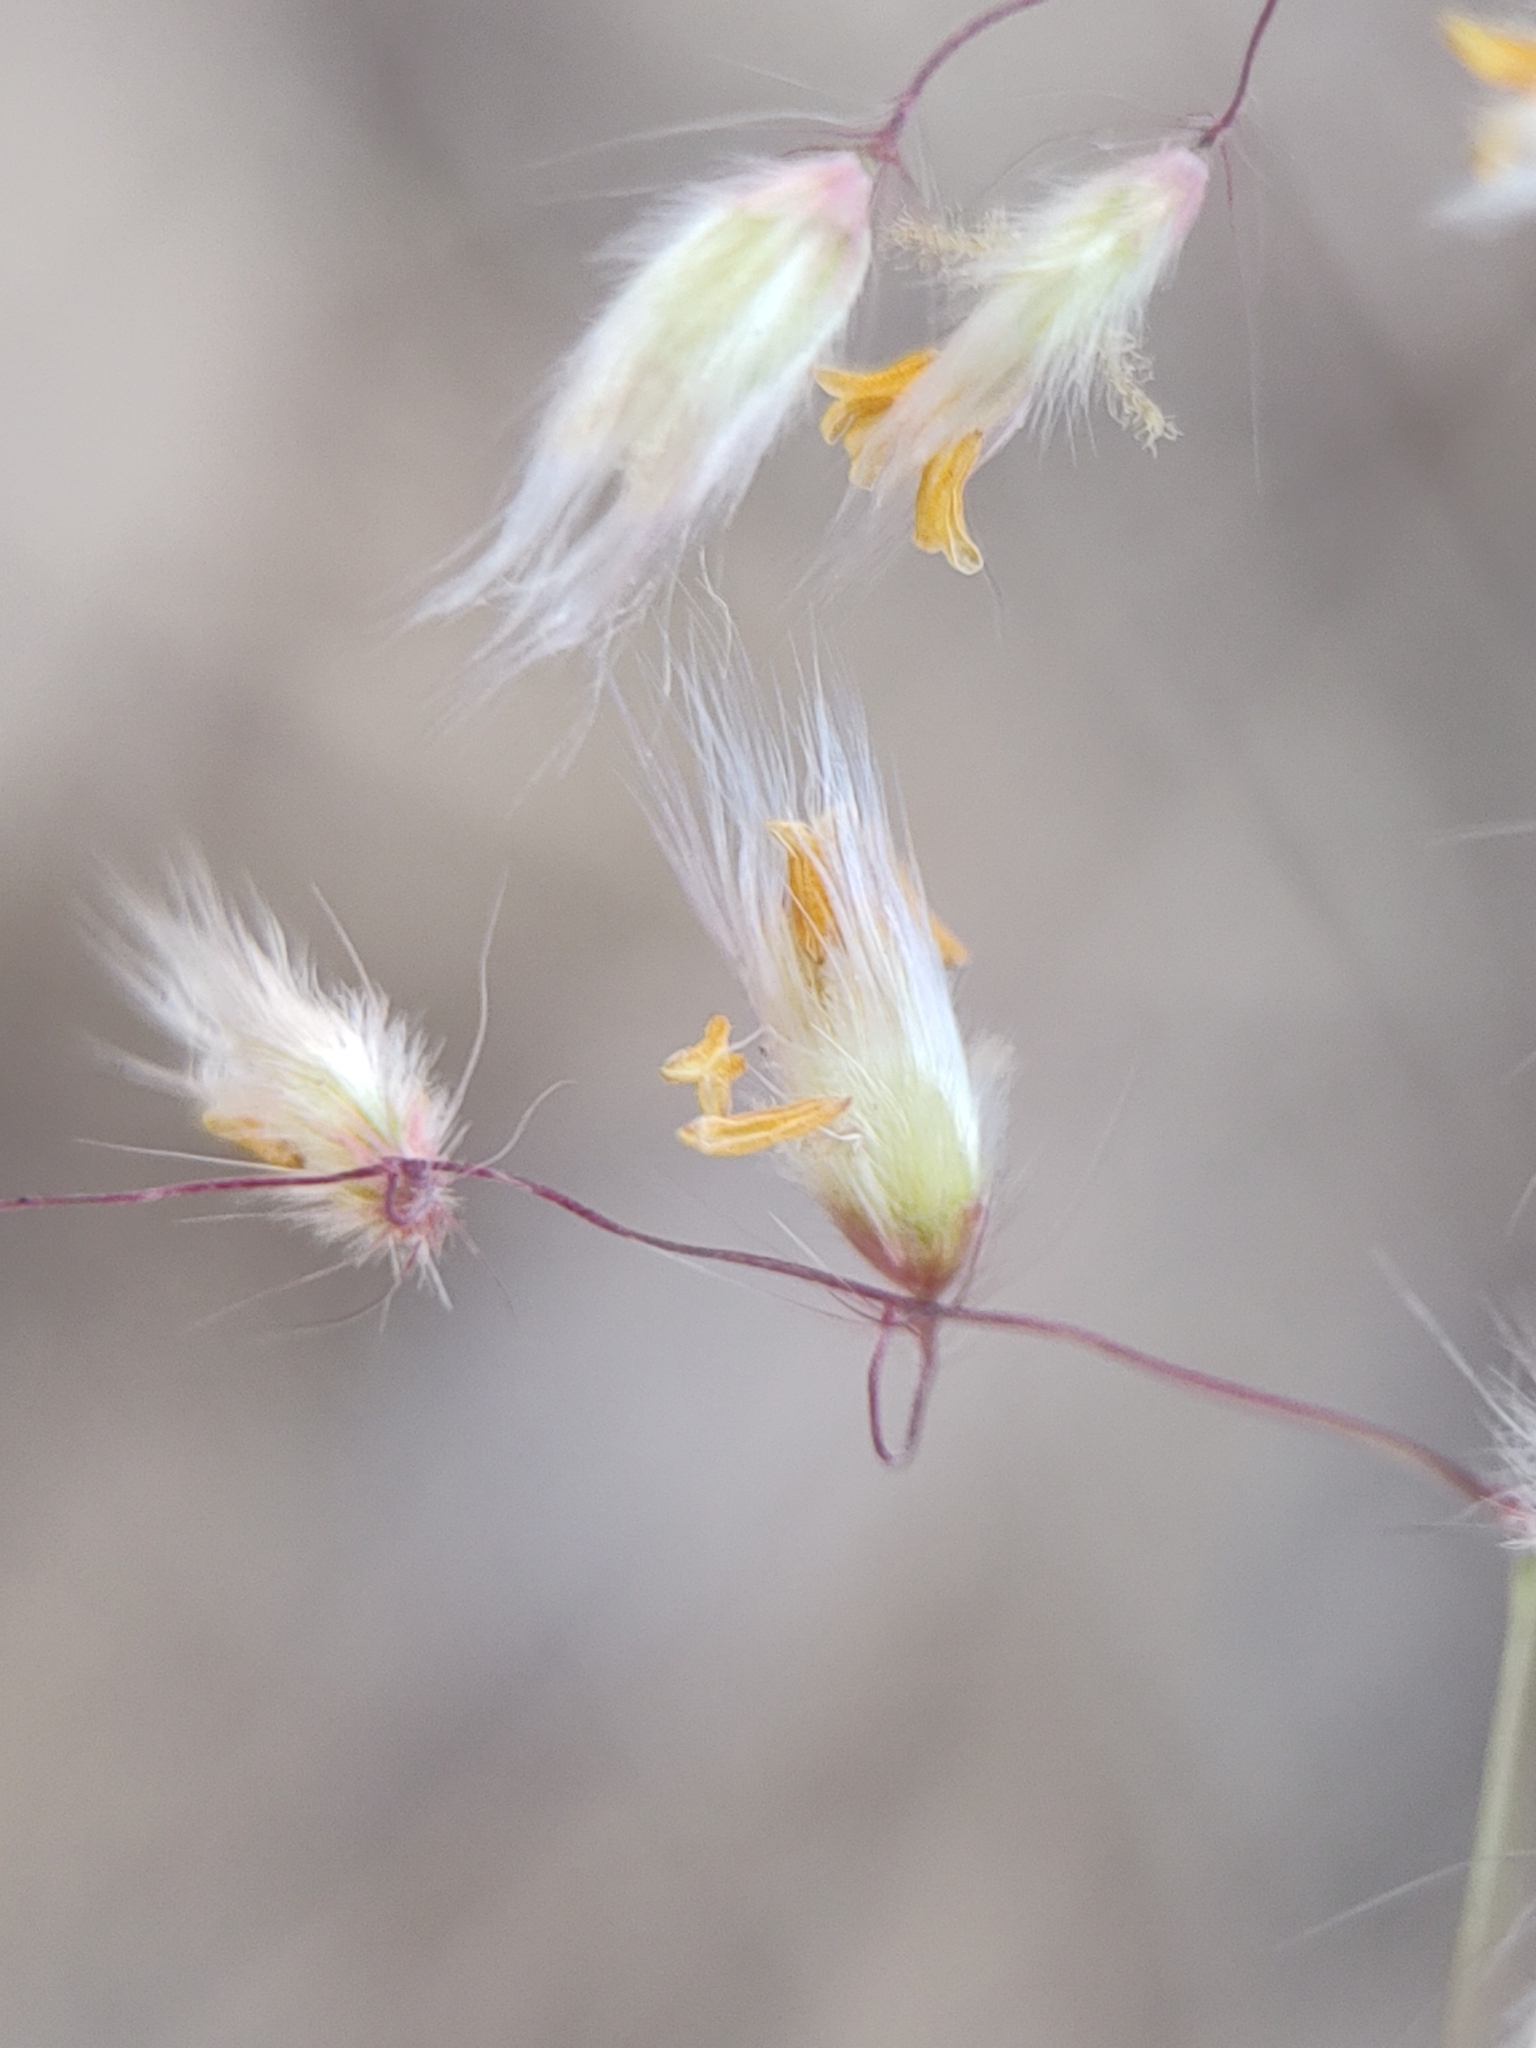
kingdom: Plantae
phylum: Tracheophyta
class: Liliopsida
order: Poales
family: Poaceae
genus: Melinis
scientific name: Melinis repens
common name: Rose natal grass
